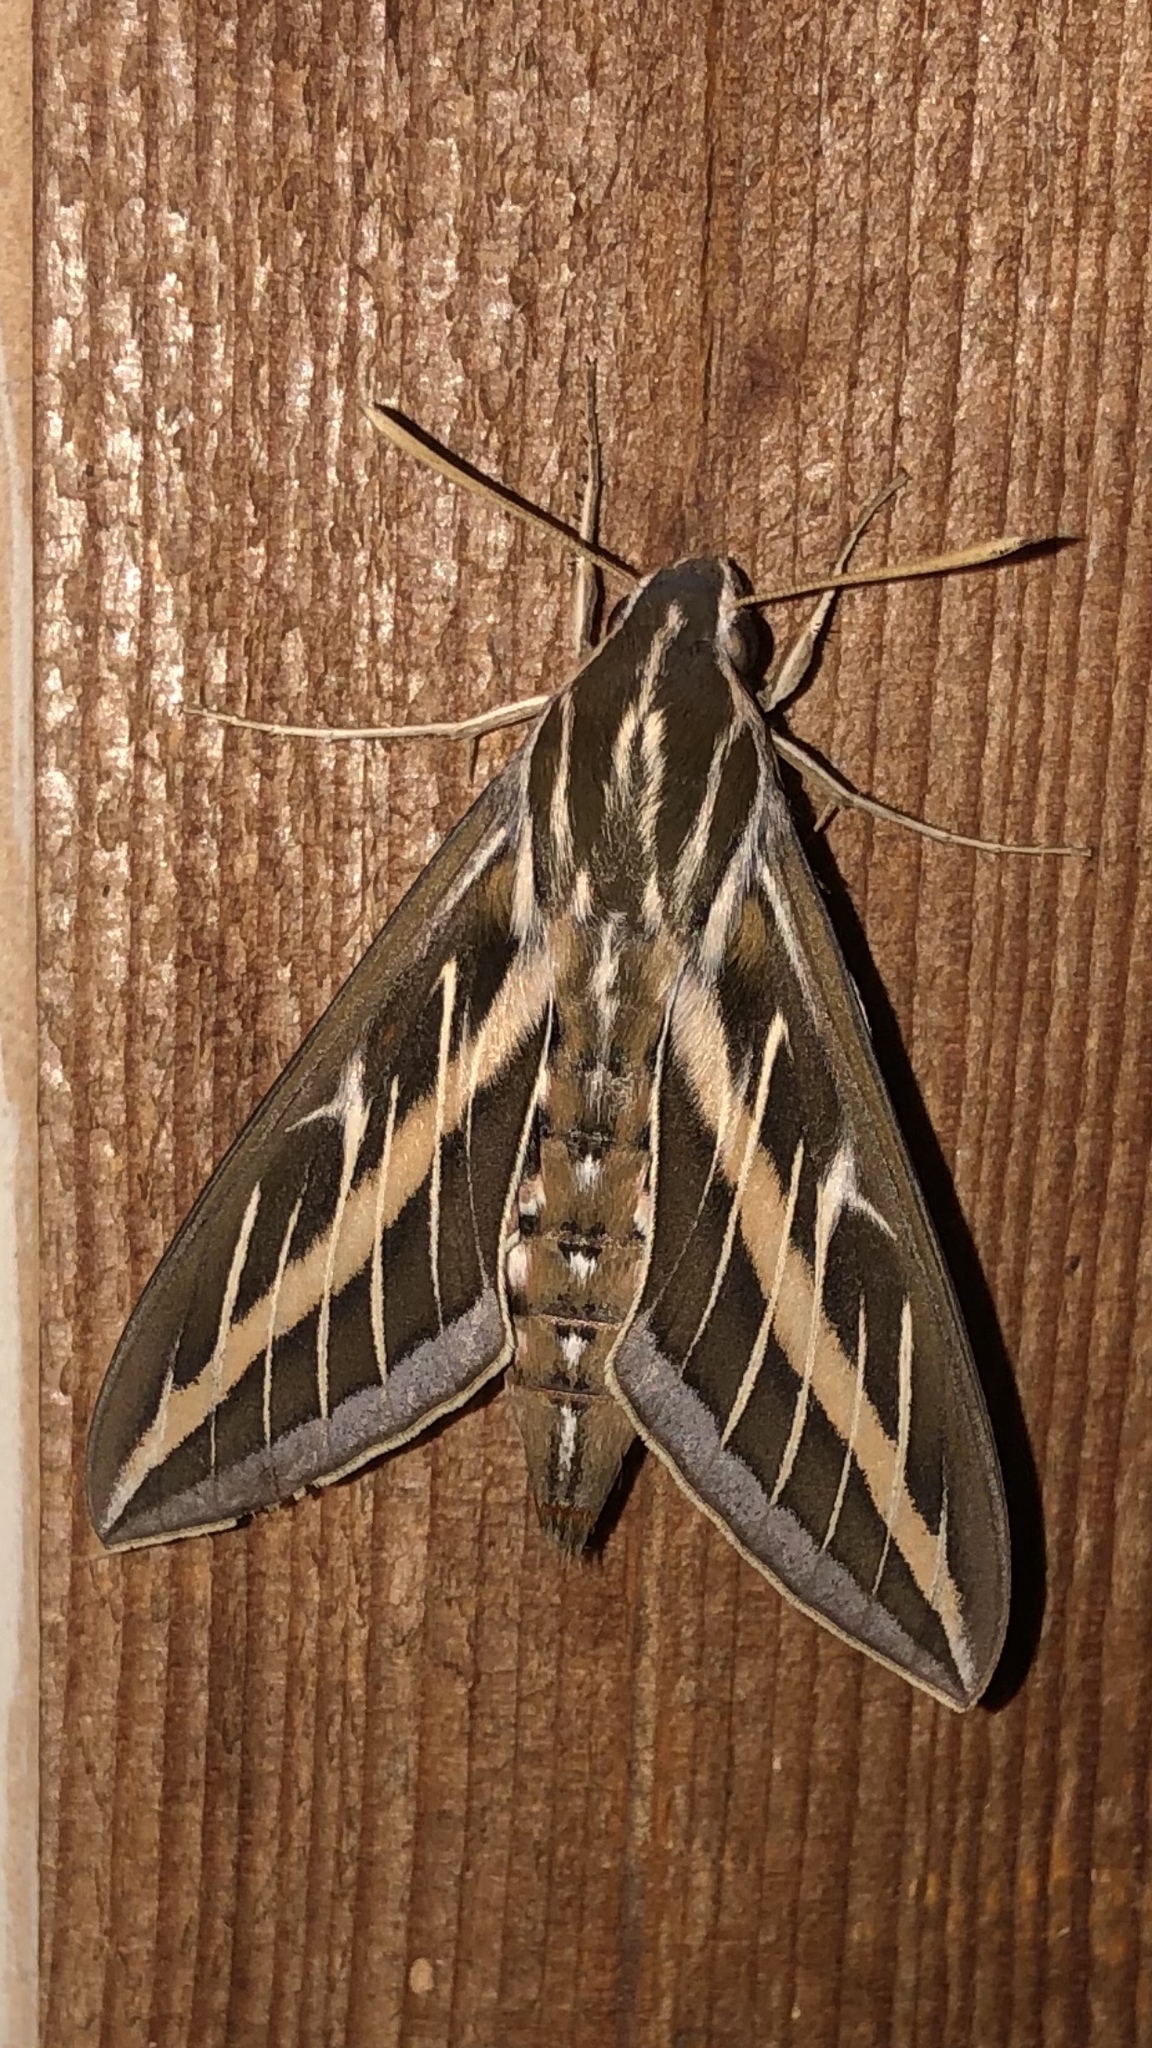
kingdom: Animalia
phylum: Arthropoda
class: Insecta
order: Lepidoptera
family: Sphingidae
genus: Hyles
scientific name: Hyles lineata
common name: White-lined sphinx
